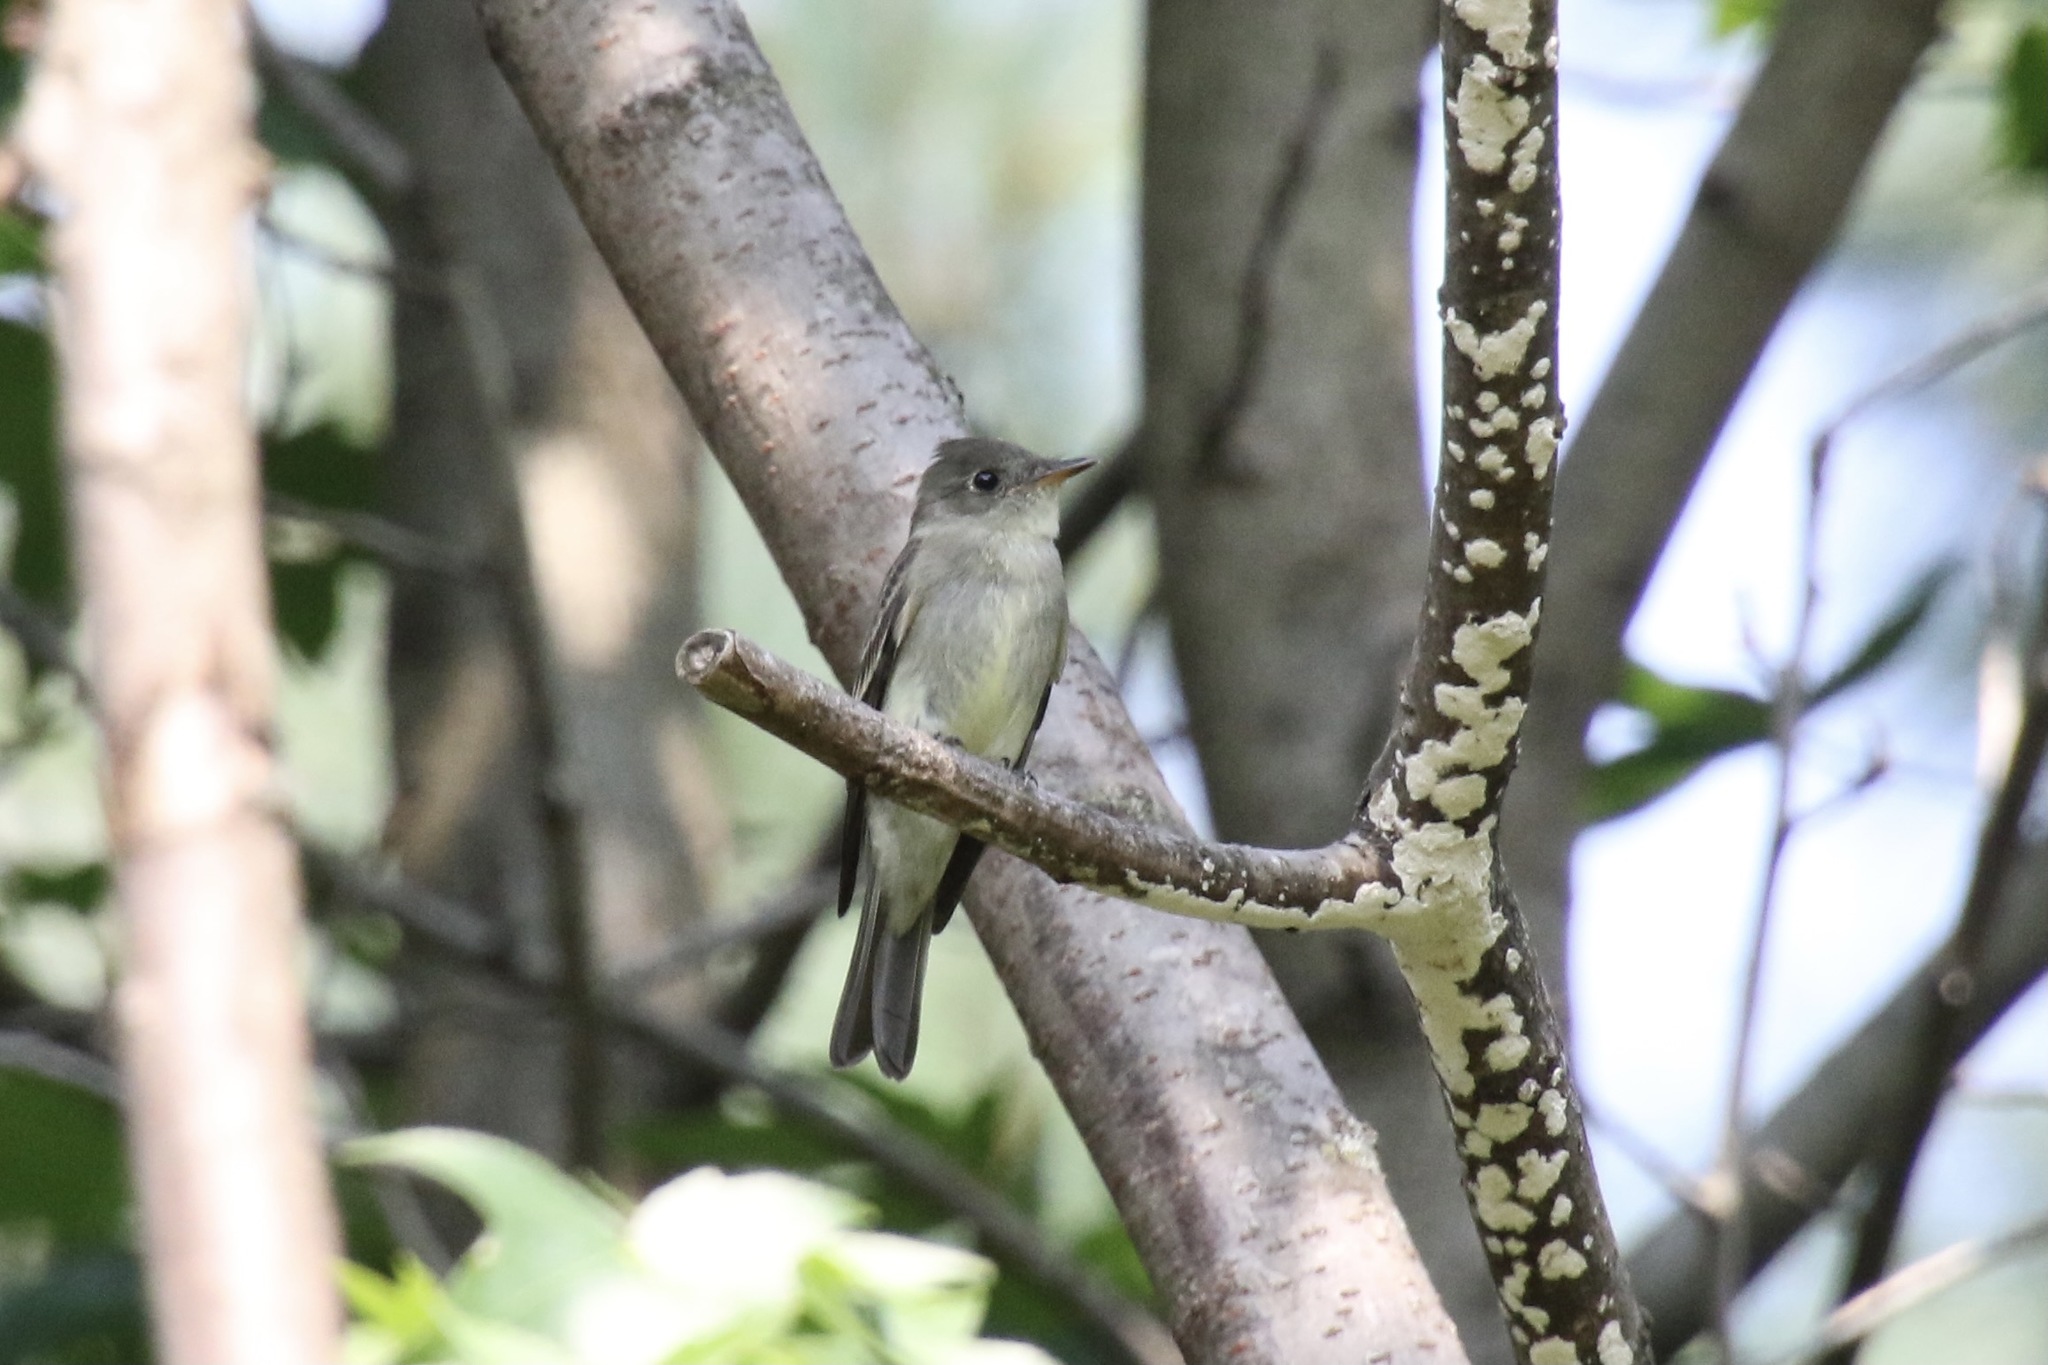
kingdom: Animalia
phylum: Chordata
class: Aves
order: Passeriformes
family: Tyrannidae
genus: Contopus
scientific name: Contopus virens
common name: Eastern wood-pewee
